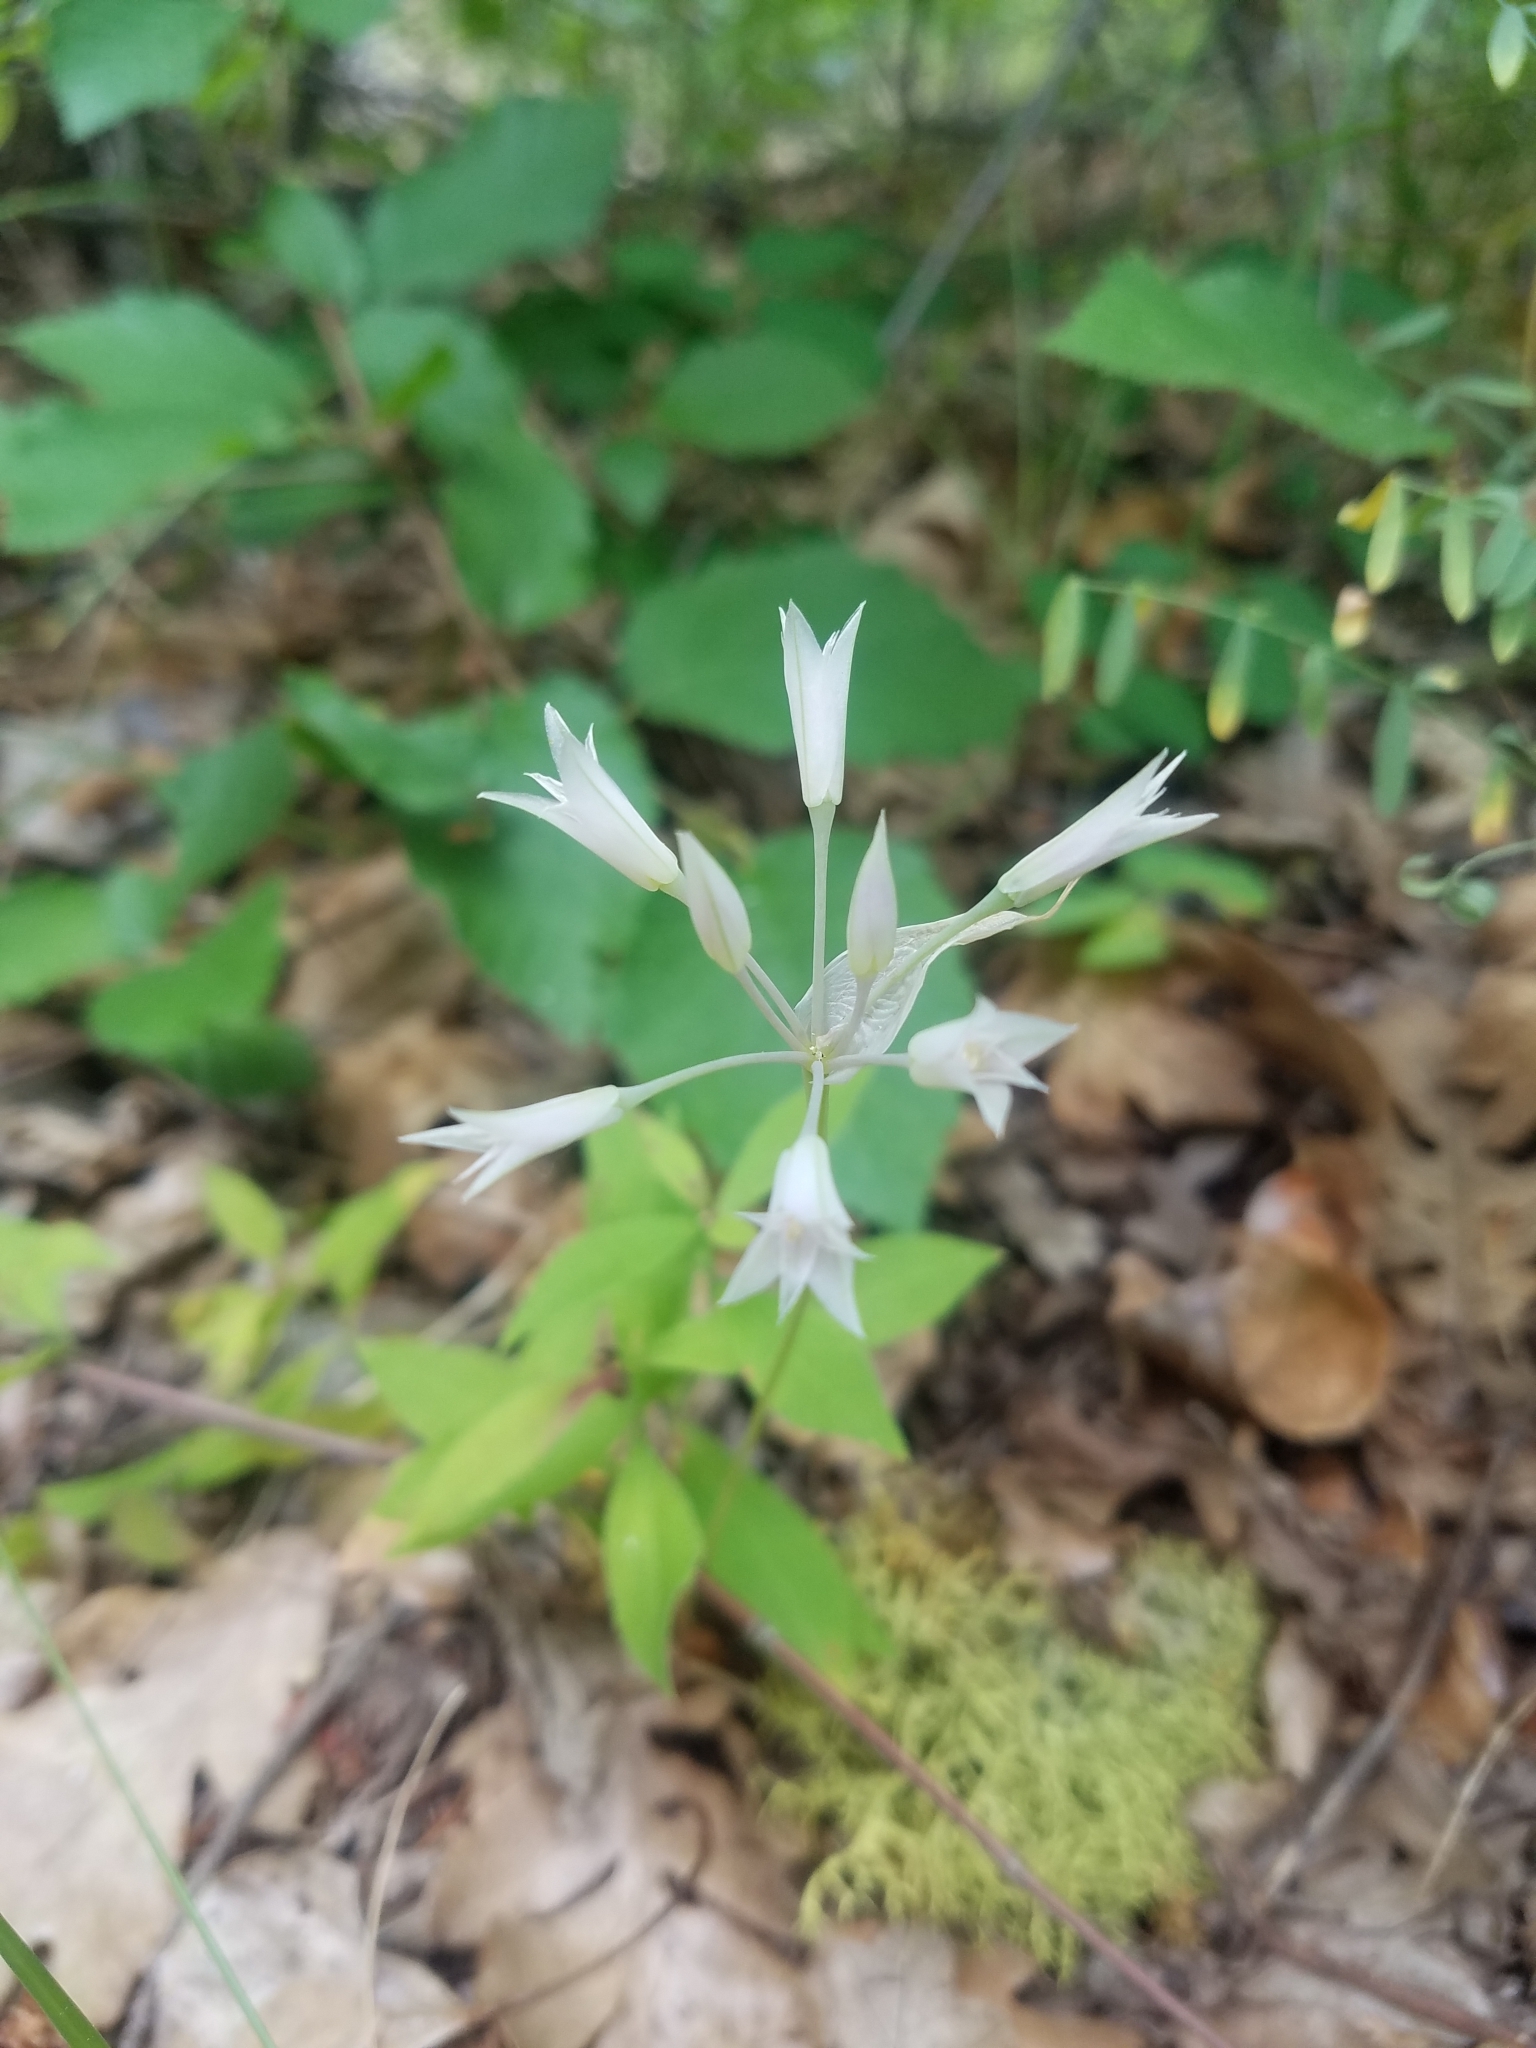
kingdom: Plantae
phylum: Tracheophyta
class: Liliopsida
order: Asparagales
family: Amaryllidaceae
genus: Allium
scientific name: Allium acuminatum
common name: Hooker's onion
